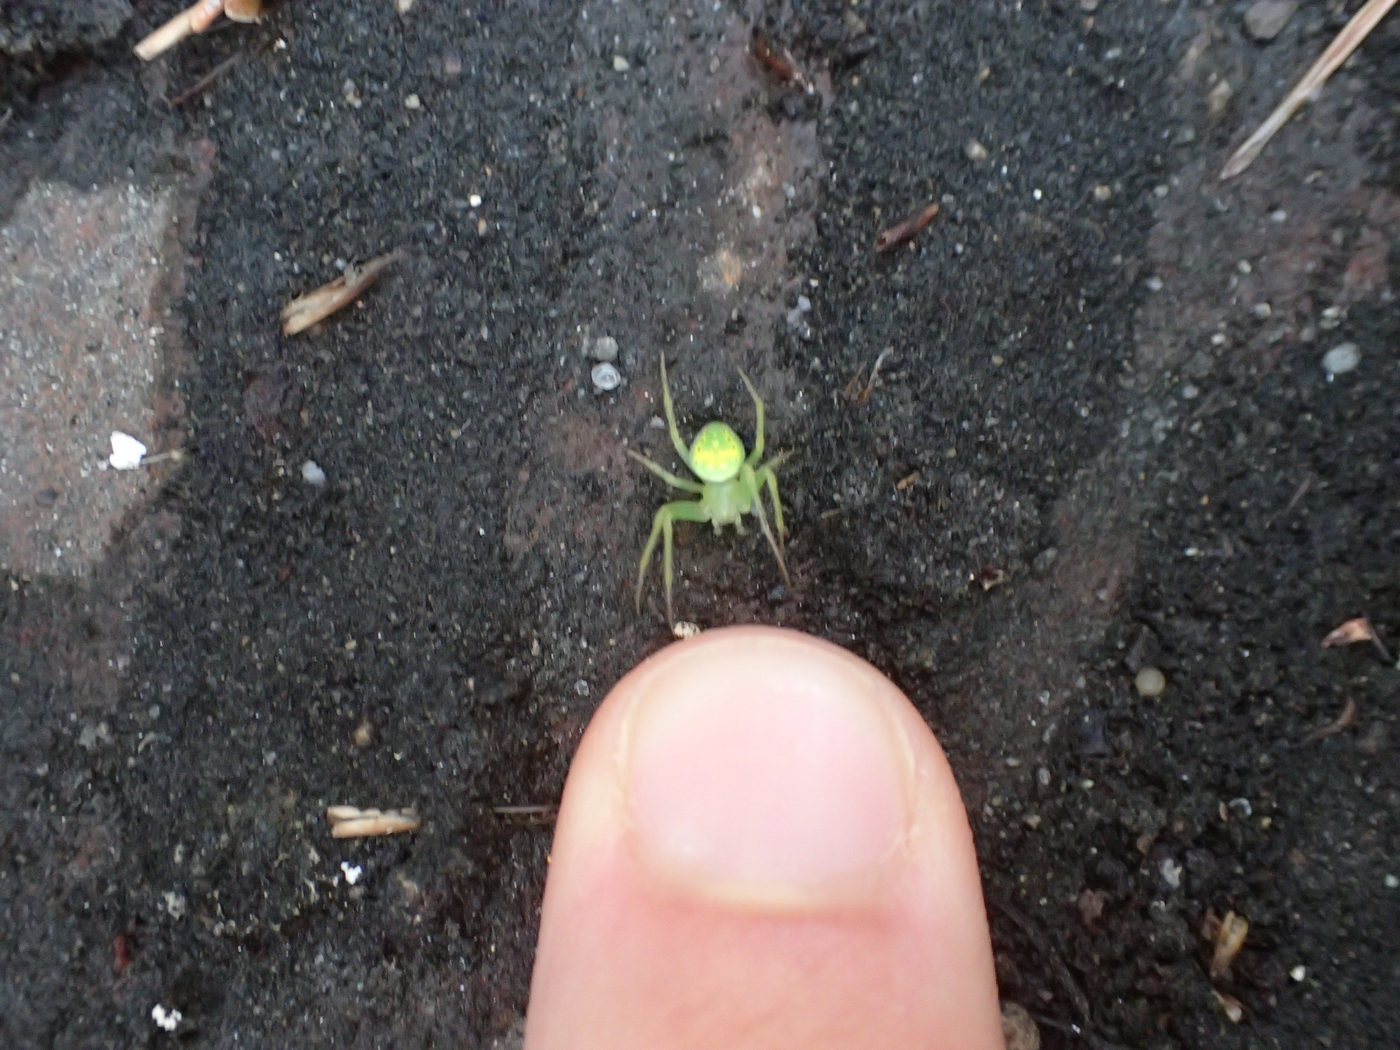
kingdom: Animalia
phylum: Arthropoda
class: Arachnida
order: Araneae
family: Araneidae
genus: Araneus
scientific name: Araneus cingulatus
